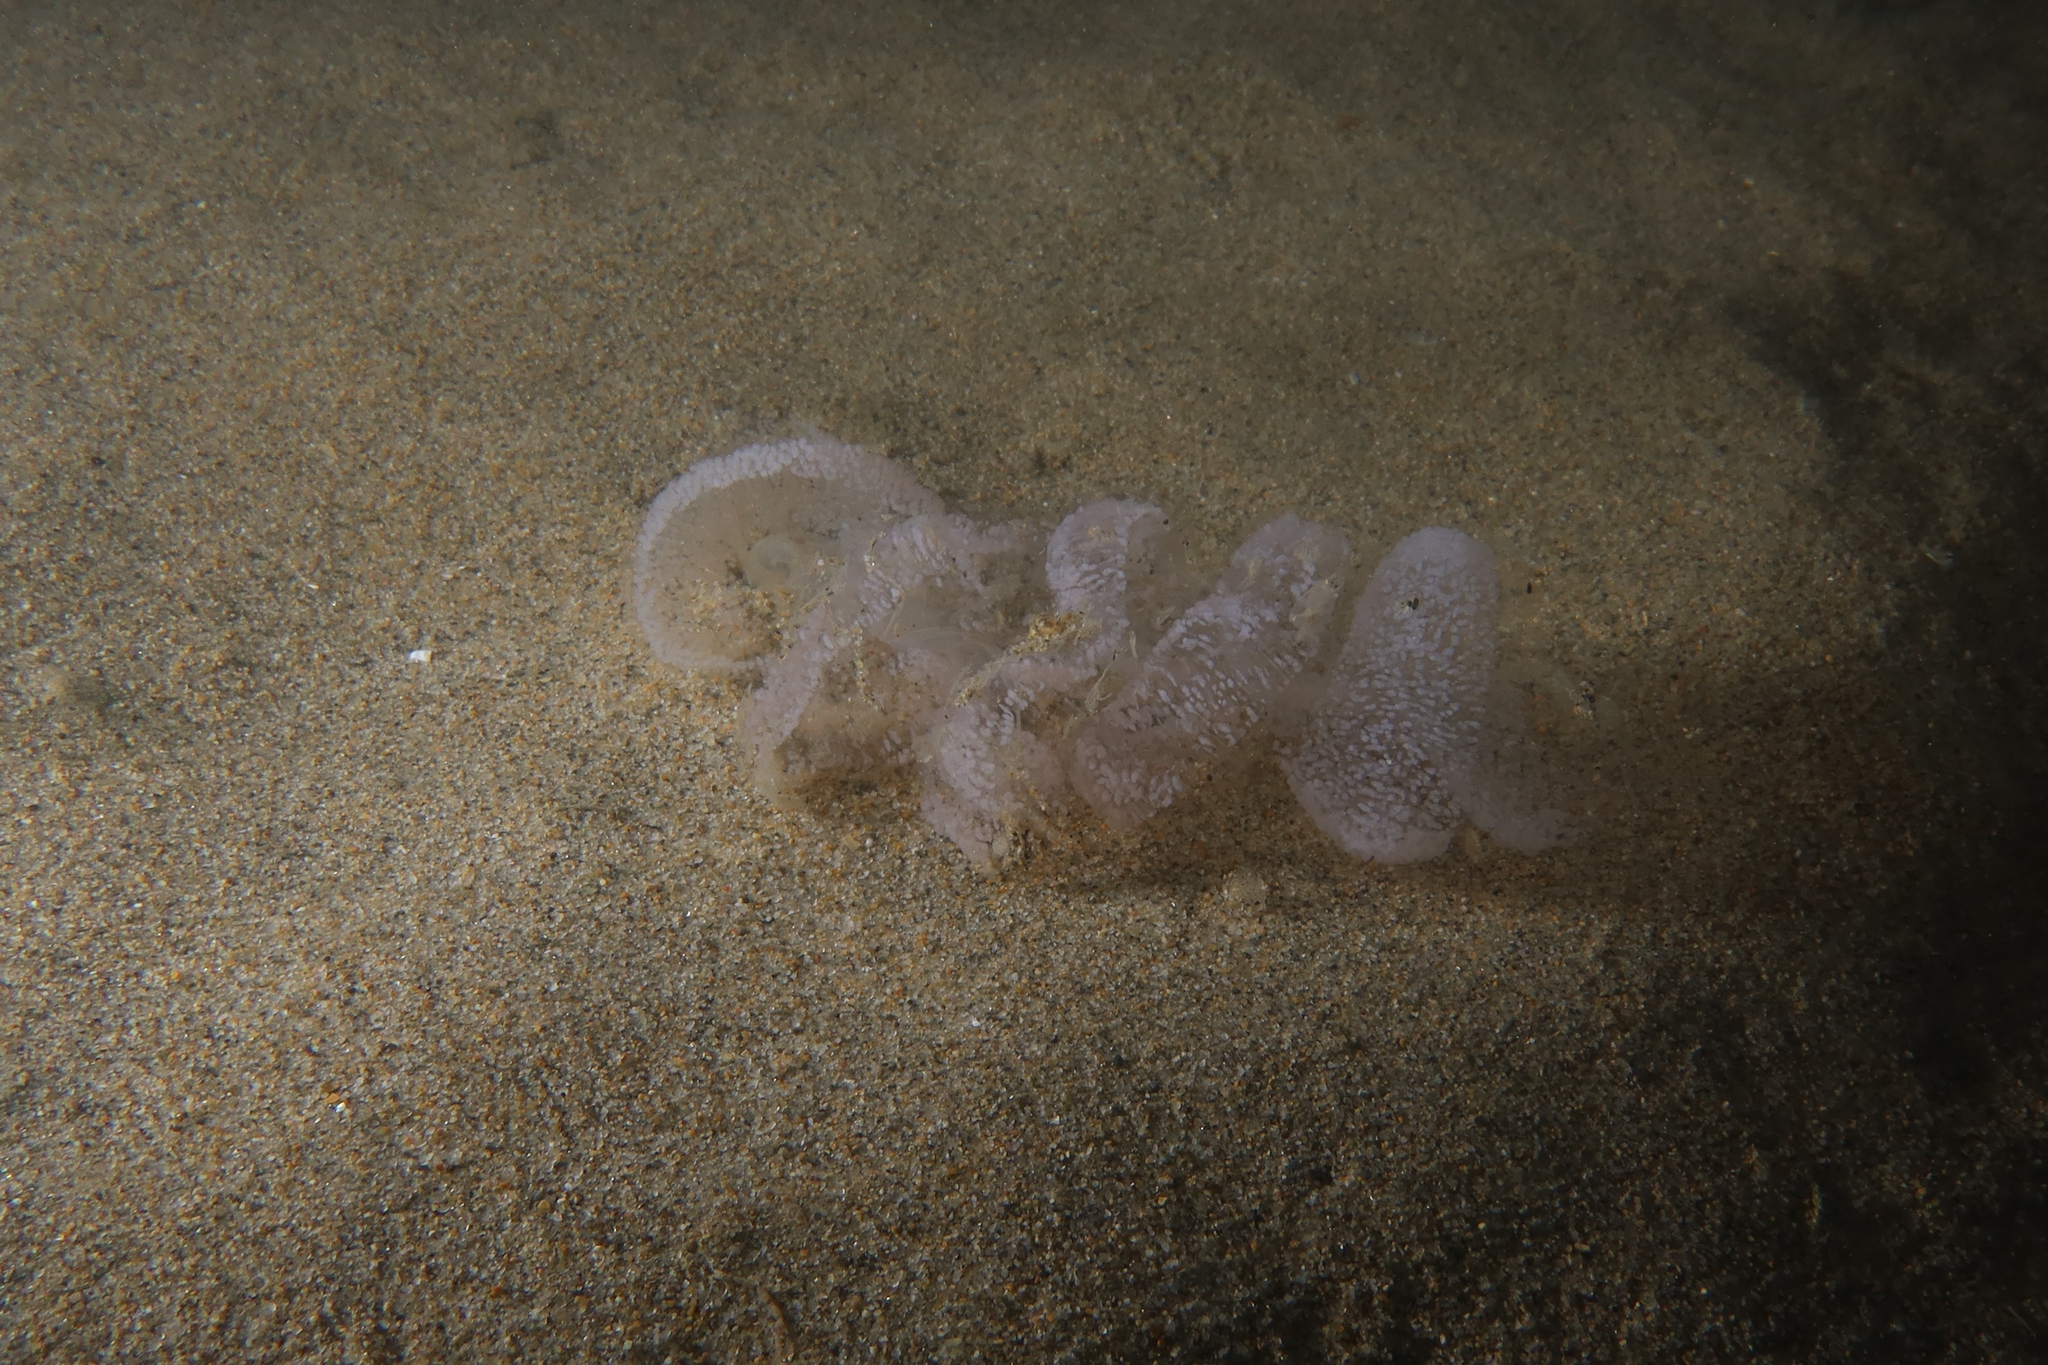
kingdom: Animalia
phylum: Mollusca
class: Gastropoda
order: Nudibranchia
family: Tethydidae
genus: Tethys
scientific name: Tethys fimbria
